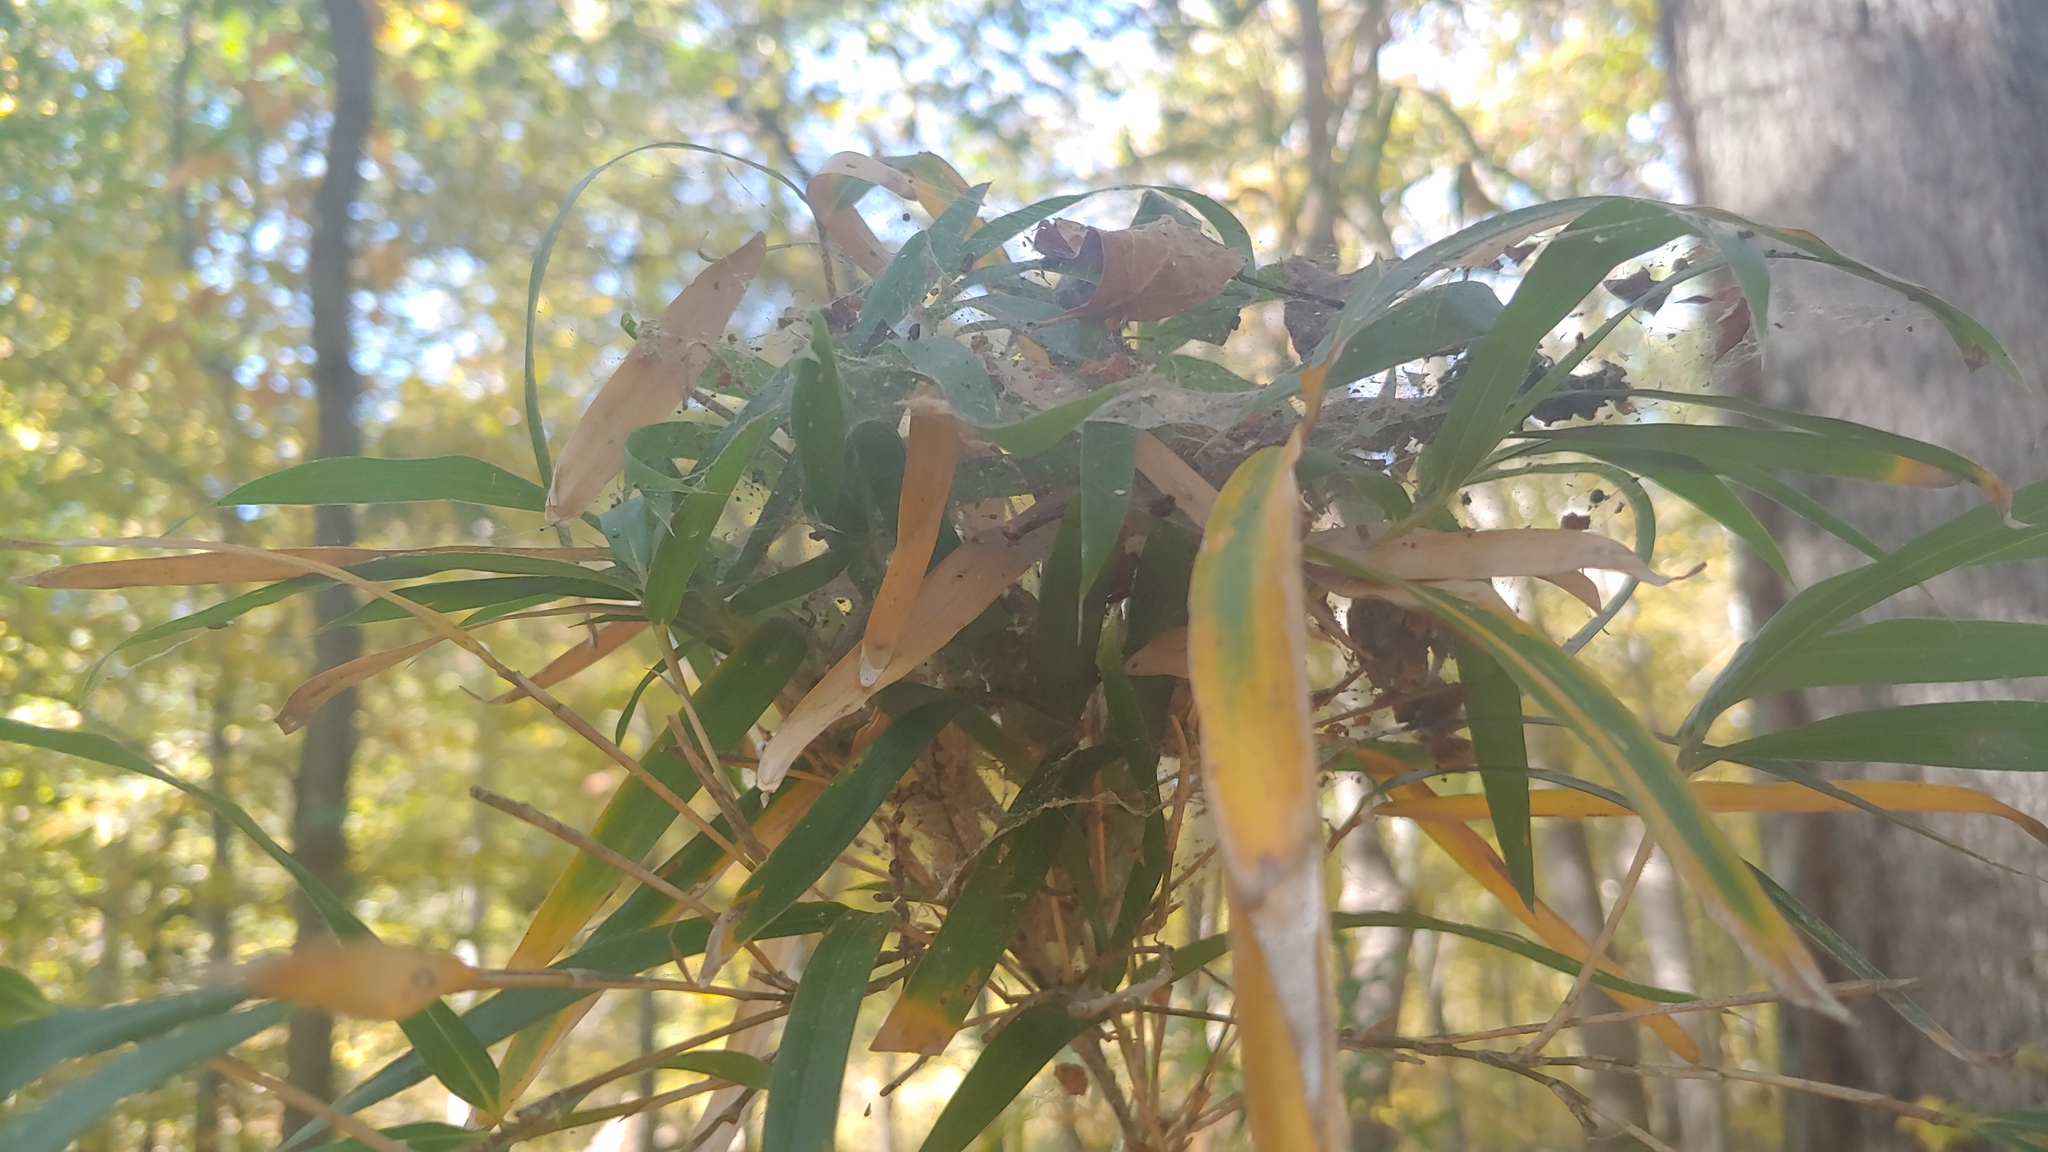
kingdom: Plantae
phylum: Tracheophyta
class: Liliopsida
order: Poales
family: Poaceae
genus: Arundinaria
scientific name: Arundinaria gigantea
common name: Giant cane
